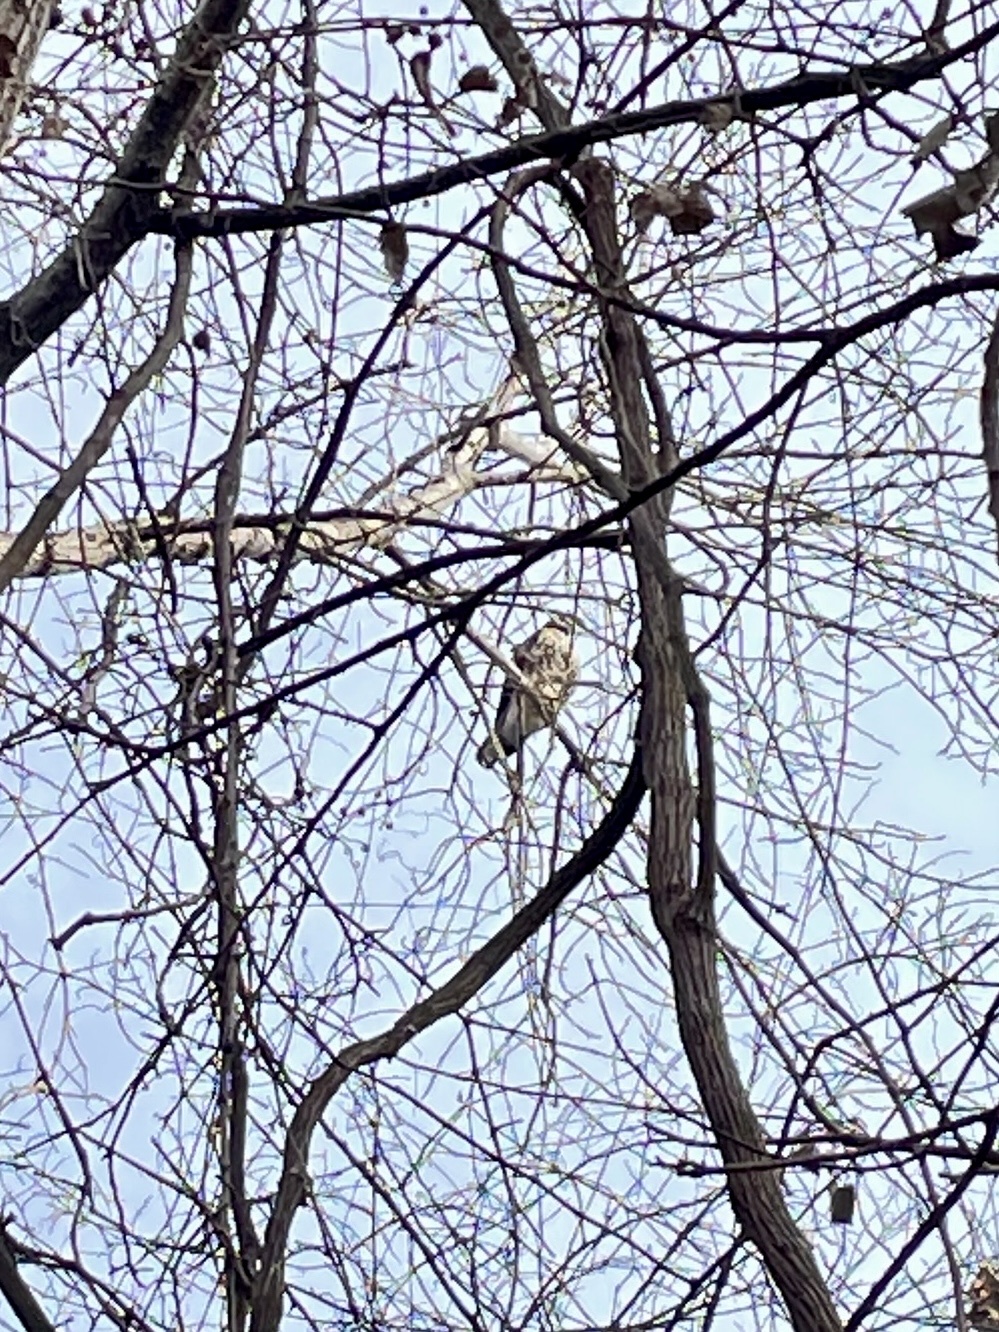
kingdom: Animalia
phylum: Chordata
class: Aves
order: Accipitriformes
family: Accipitridae
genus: Buteo
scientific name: Buteo jamaicensis
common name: Red-tailed hawk
